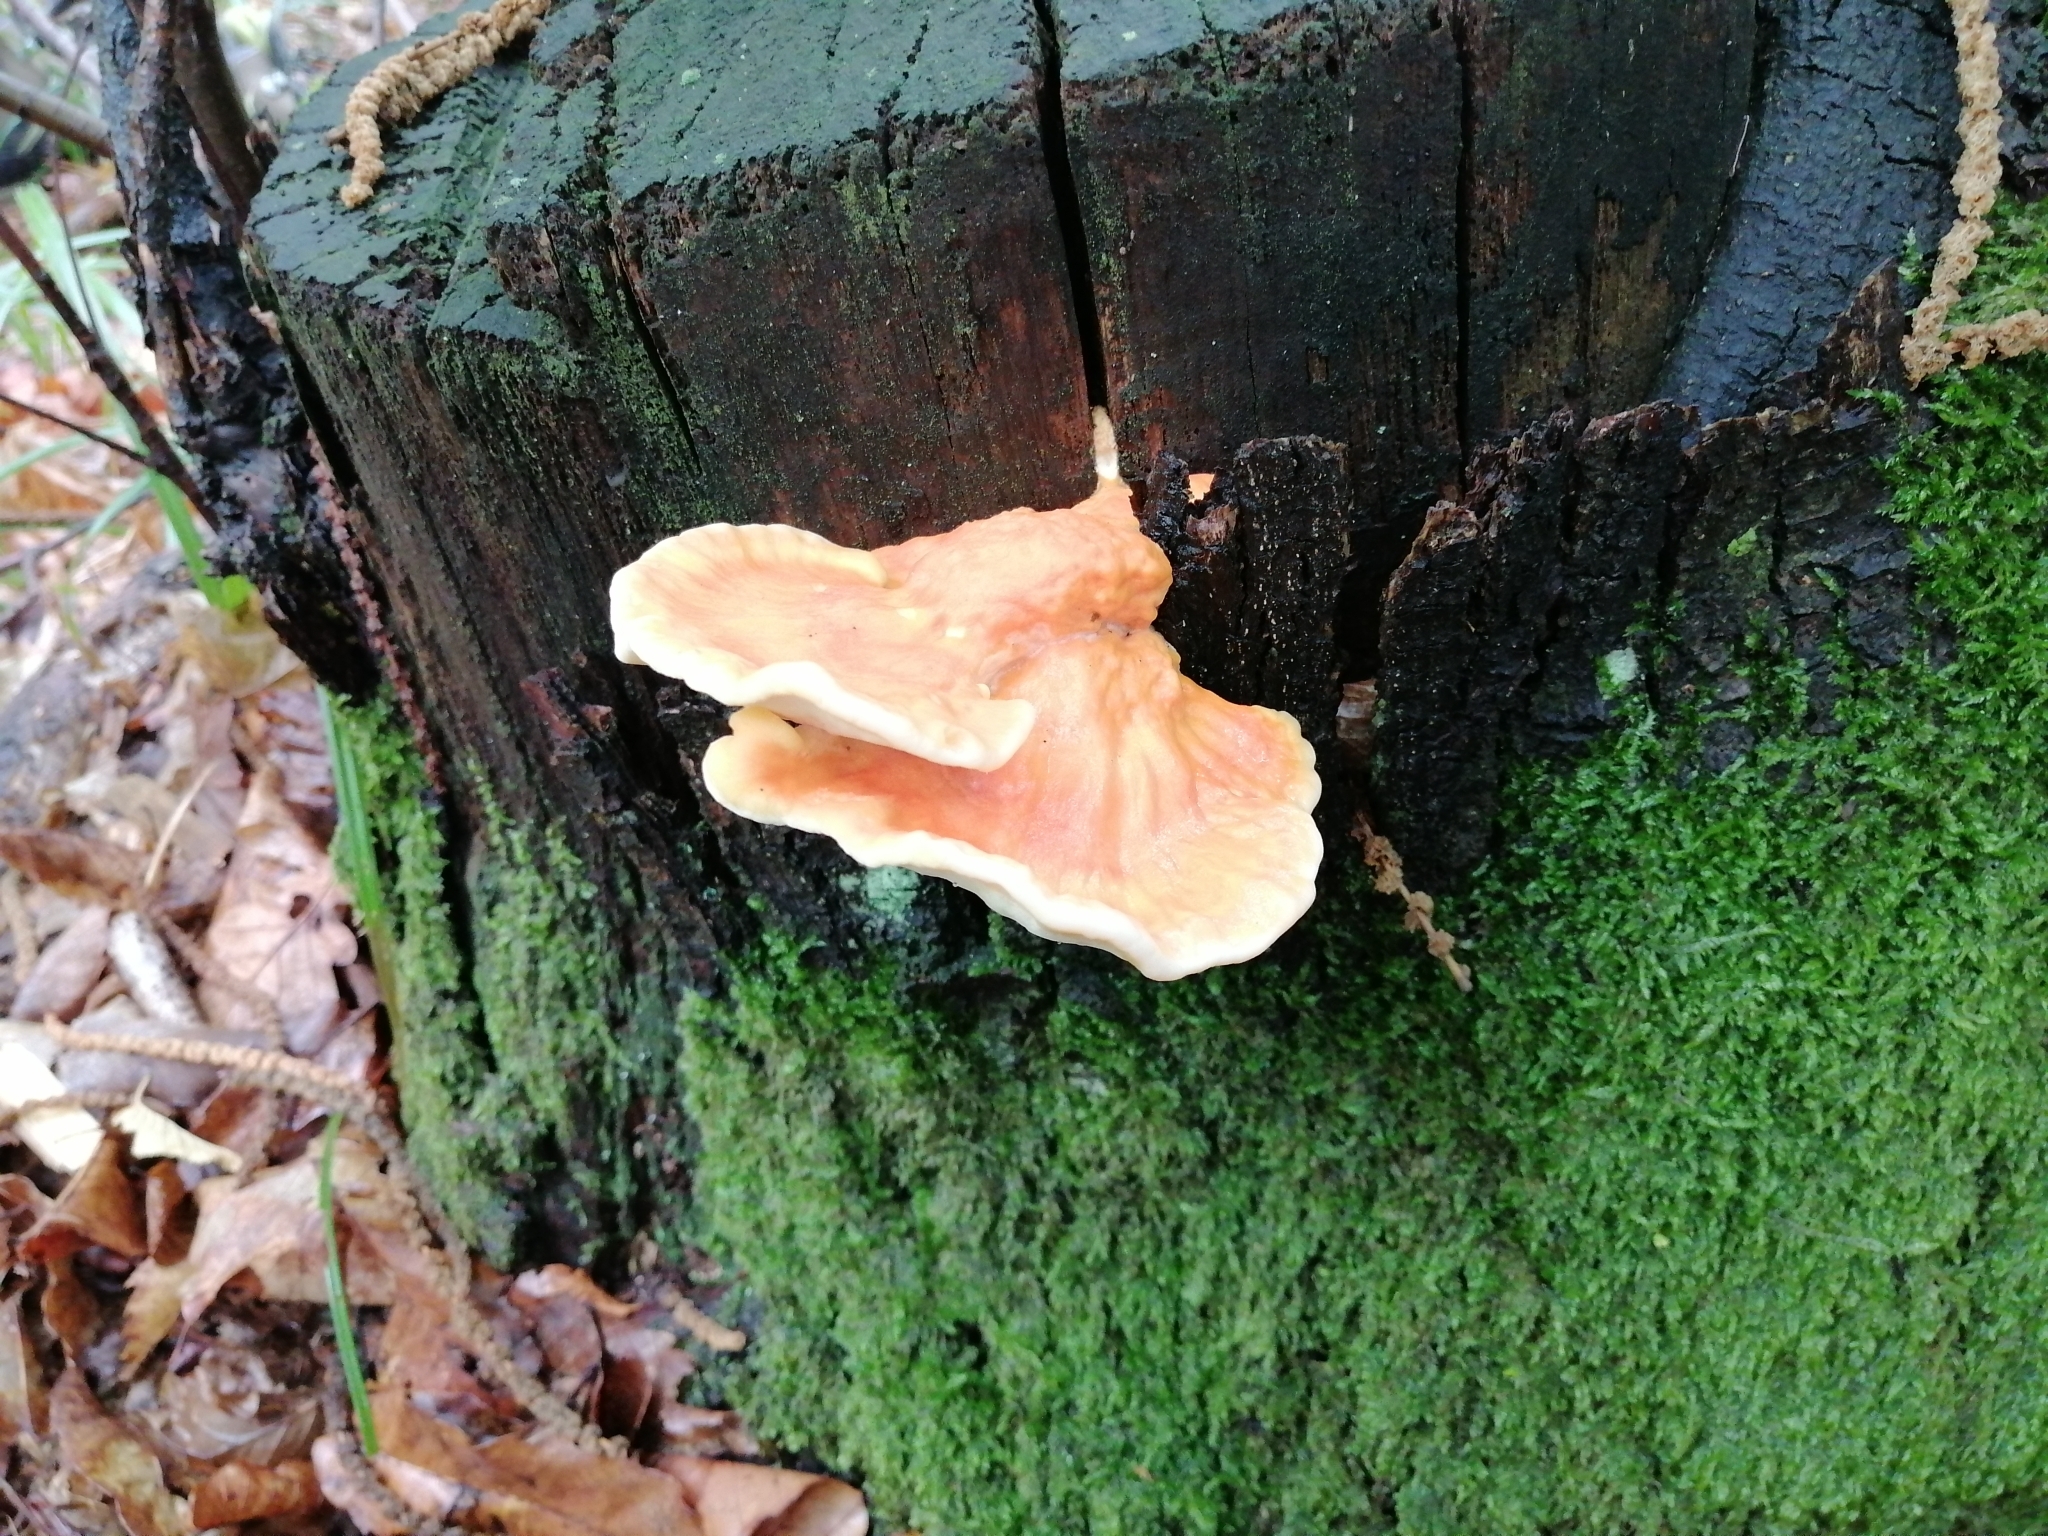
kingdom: Fungi
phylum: Basidiomycota
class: Agaricomycetes
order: Polyporales
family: Laetiporaceae
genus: Laetiporus
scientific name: Laetiporus sulphureus
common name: Chicken of the woods
